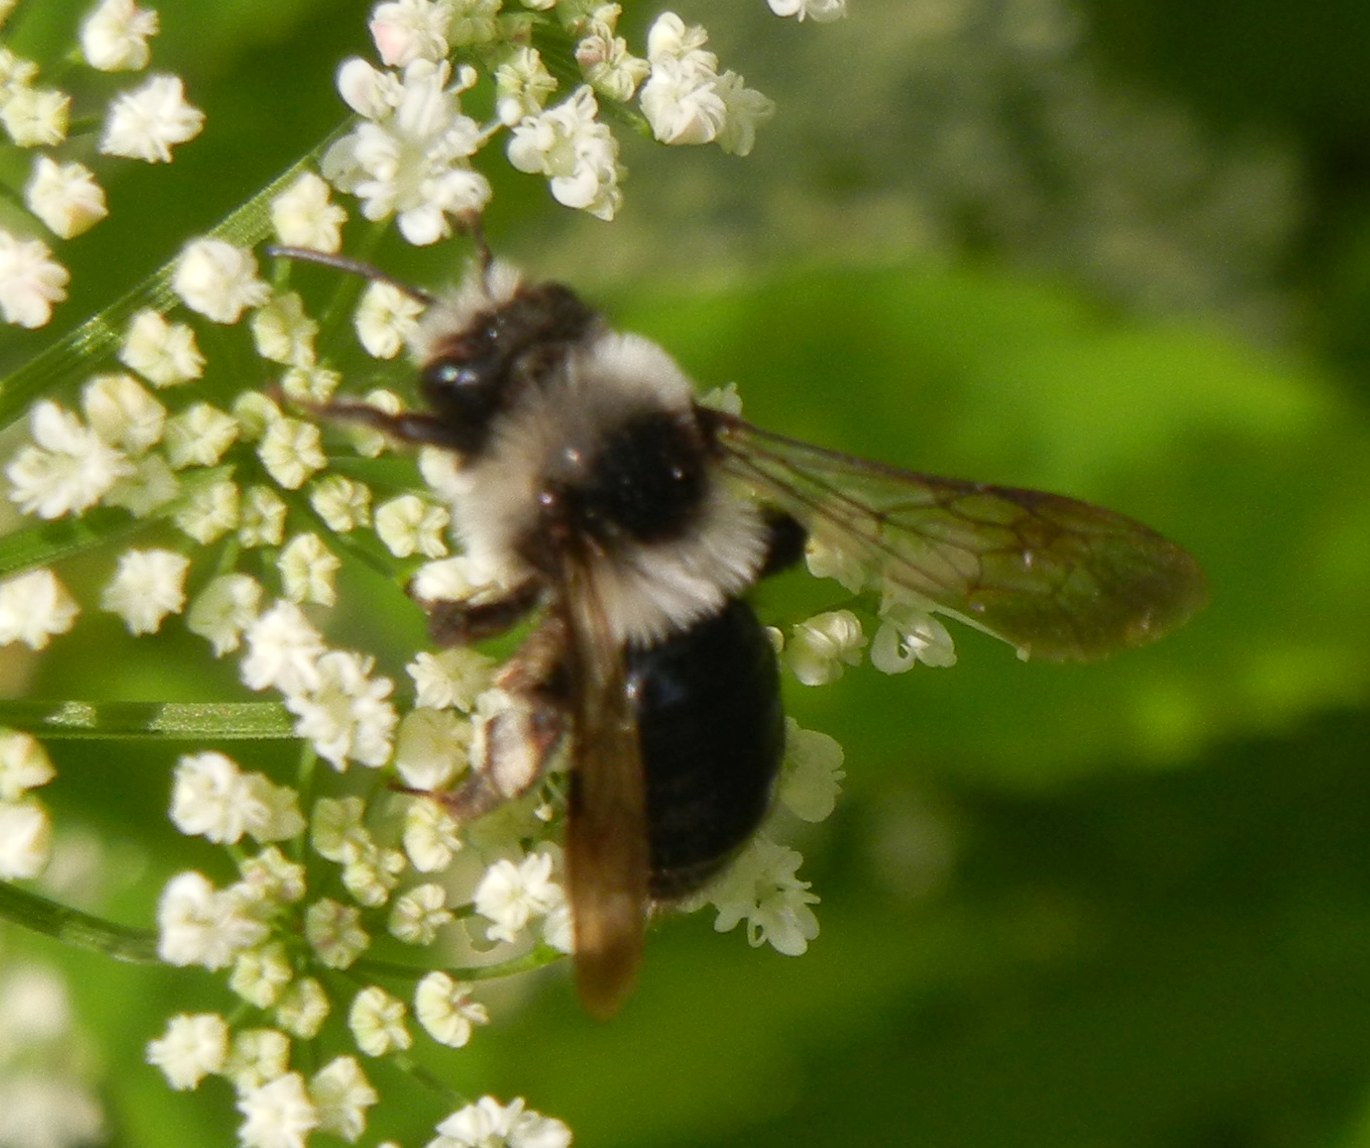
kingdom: Animalia
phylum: Arthropoda
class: Insecta
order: Hymenoptera
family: Andrenidae
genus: Andrena
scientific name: Andrena cineraria
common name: Ashy mining bee
